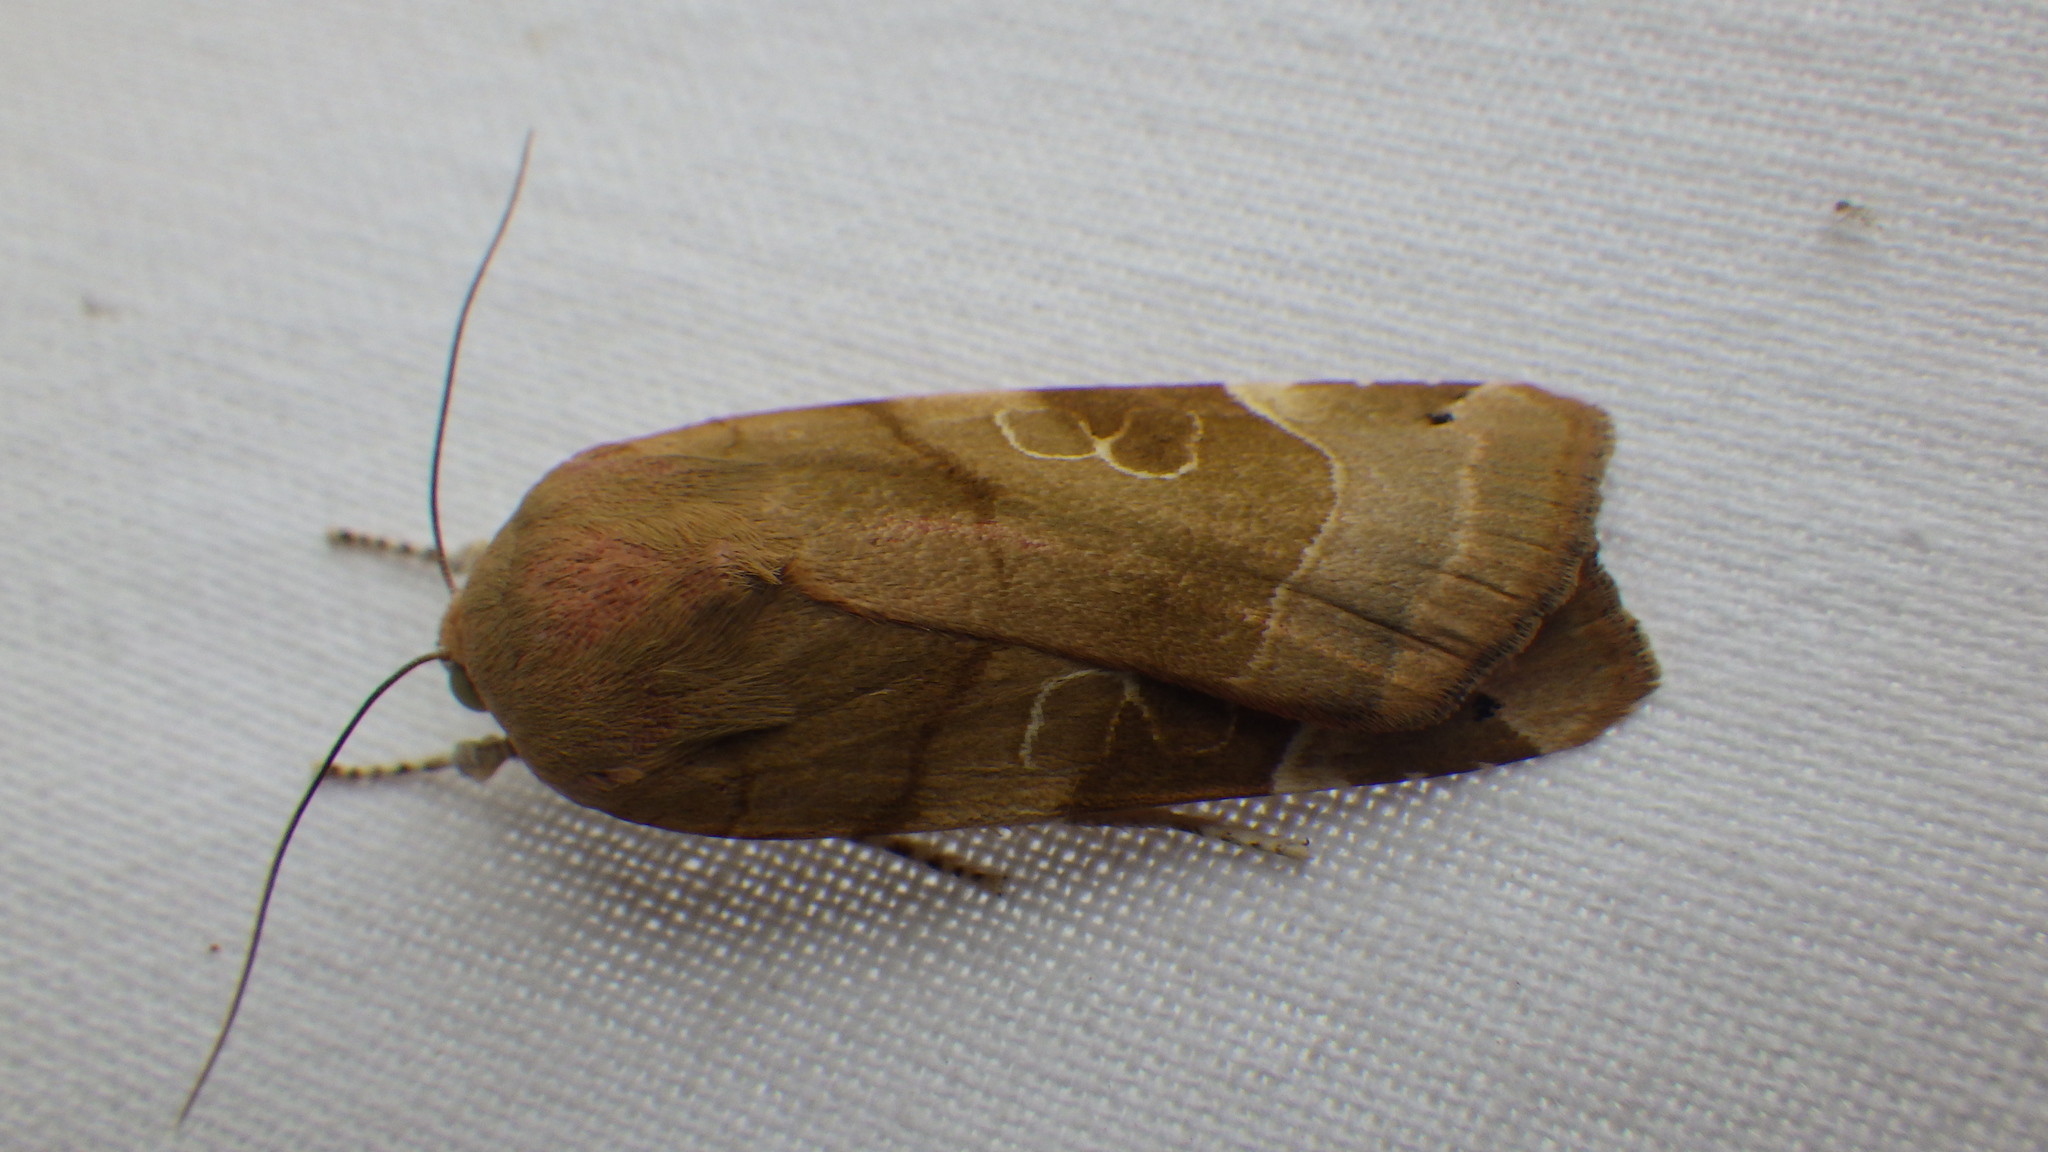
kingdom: Animalia
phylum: Arthropoda
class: Insecta
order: Lepidoptera
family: Noctuidae
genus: Noctua
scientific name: Noctua fimbriata
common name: Broad-bordered yellow underwing
